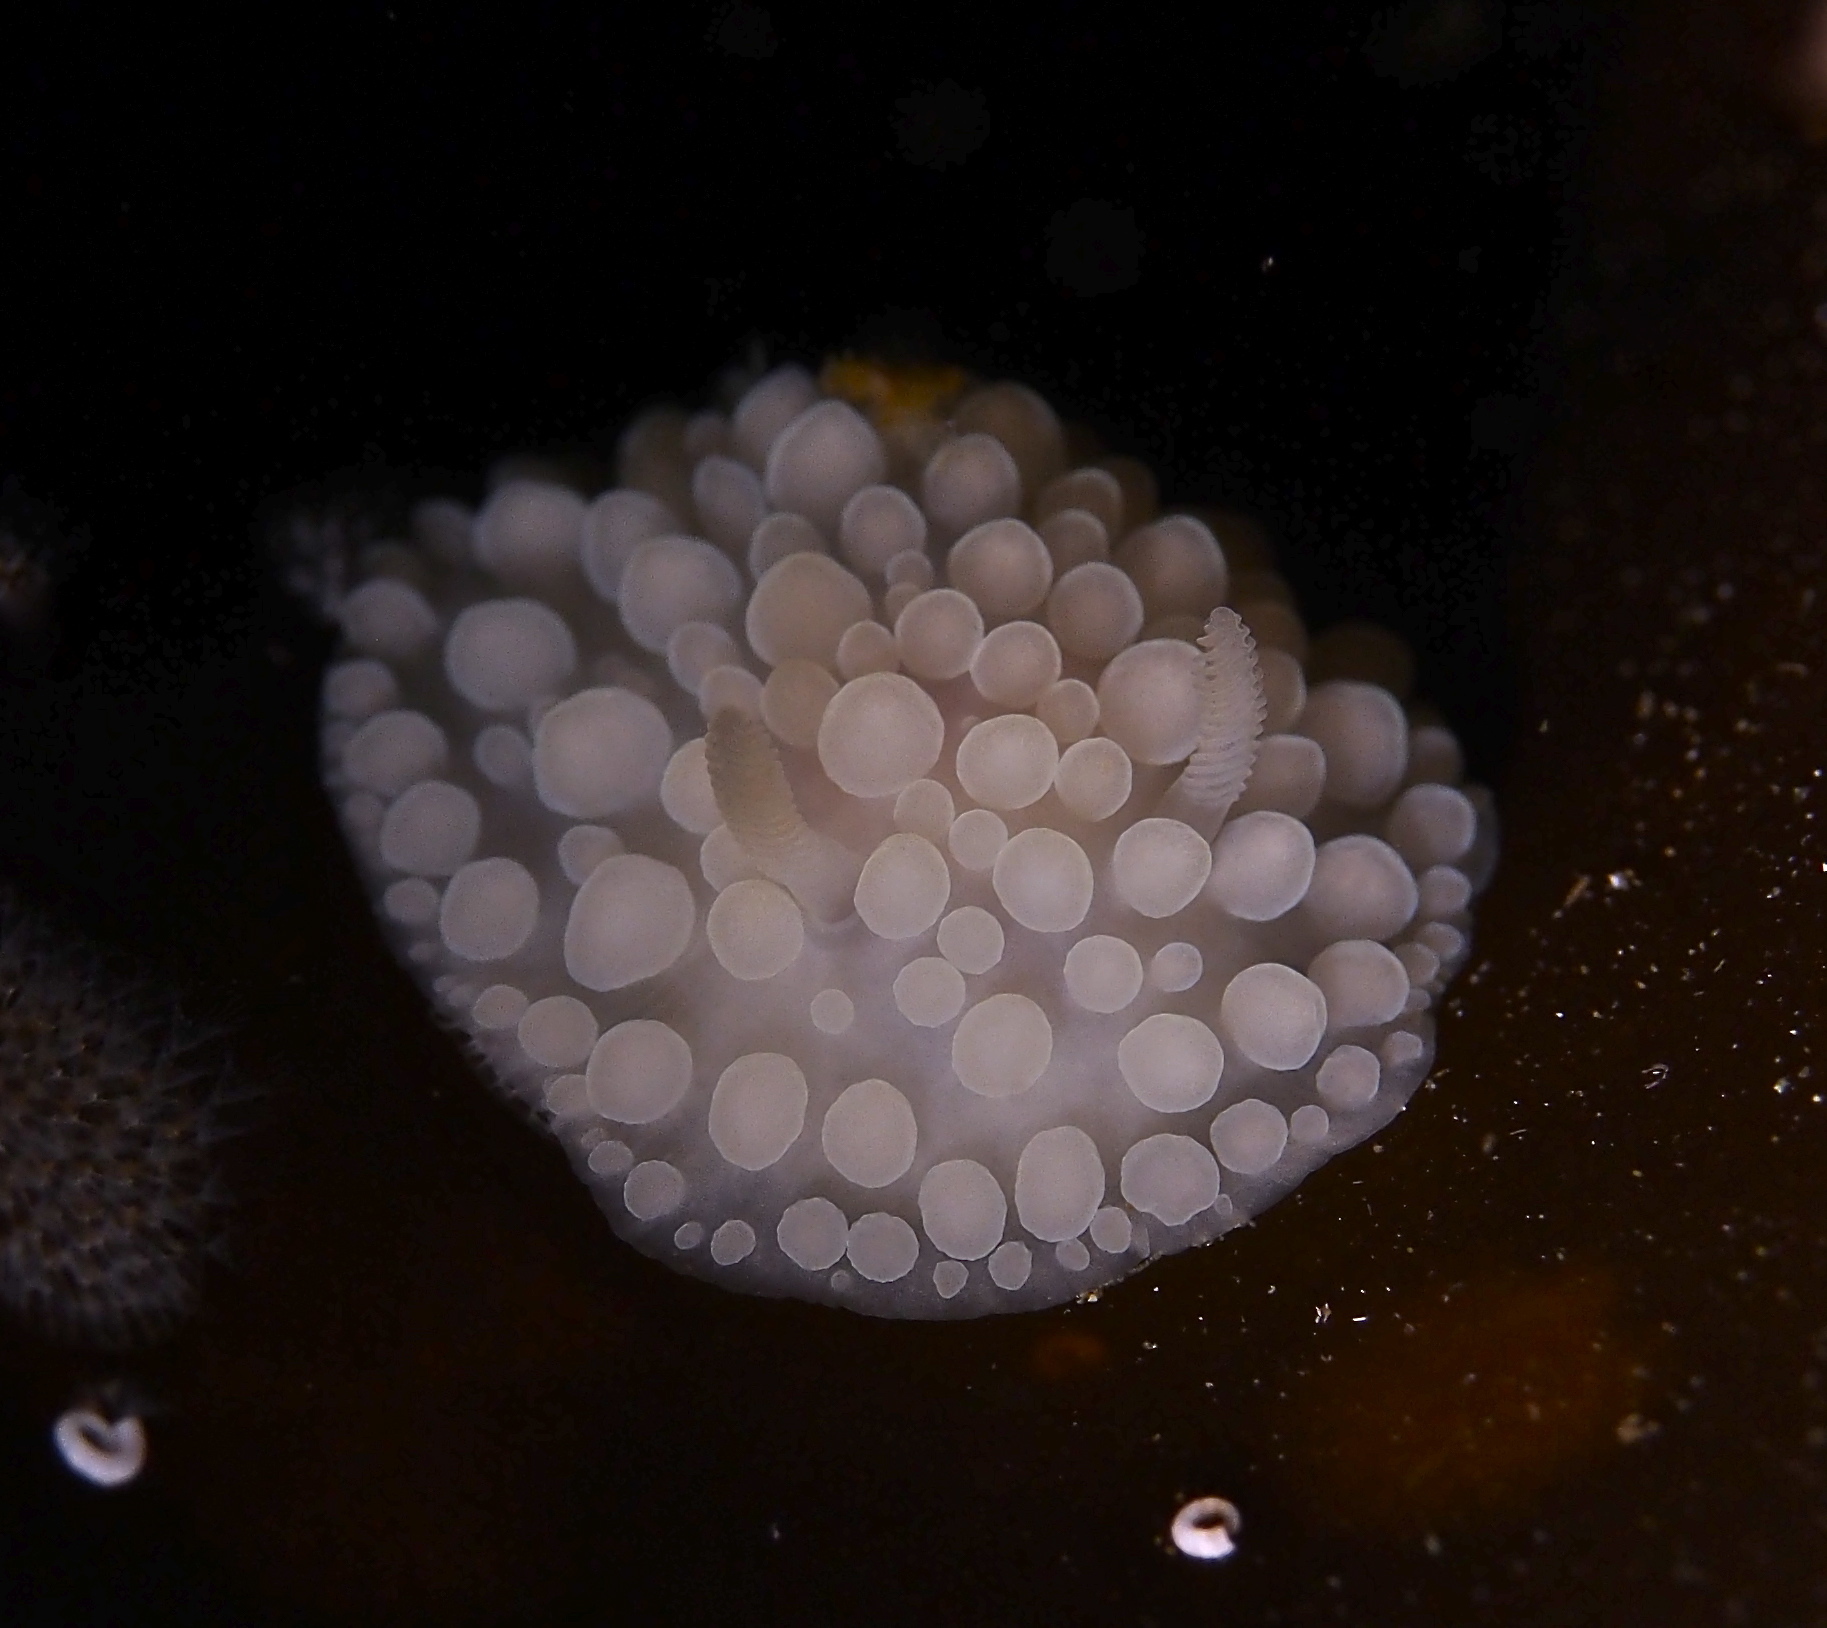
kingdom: Animalia
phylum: Mollusca
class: Gastropoda
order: Nudibranchia
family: Onchidorididae
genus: Adalaria
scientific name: Adalaria loveni
